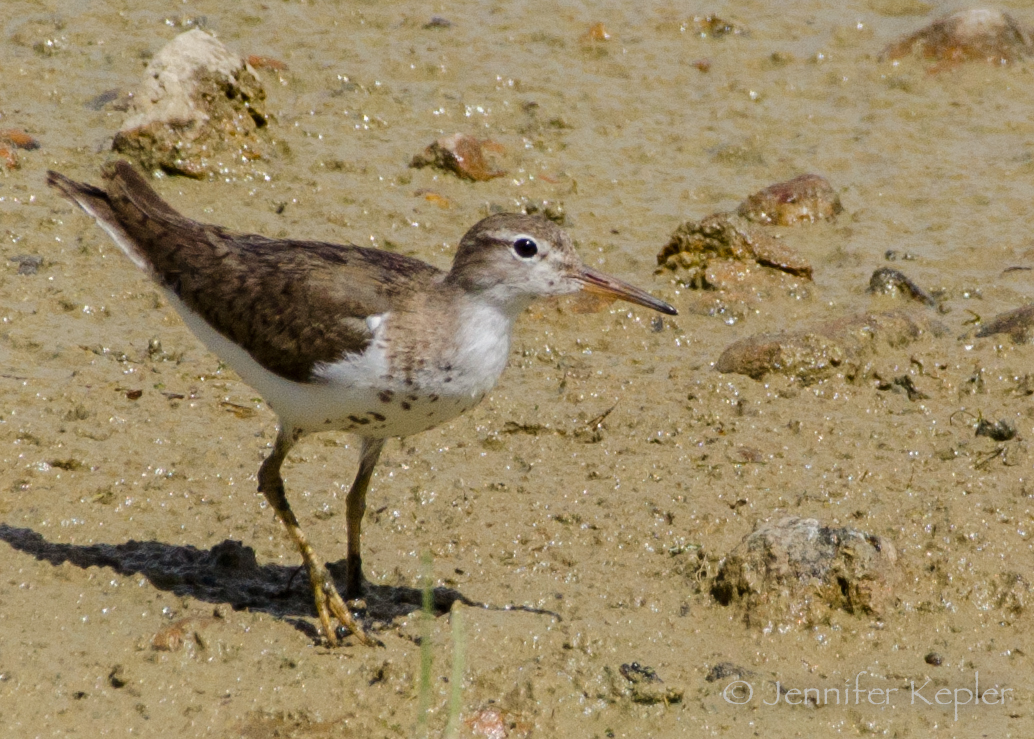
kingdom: Animalia
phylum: Chordata
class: Aves
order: Charadriiformes
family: Scolopacidae
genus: Actitis
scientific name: Actitis macularius
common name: Spotted sandpiper
